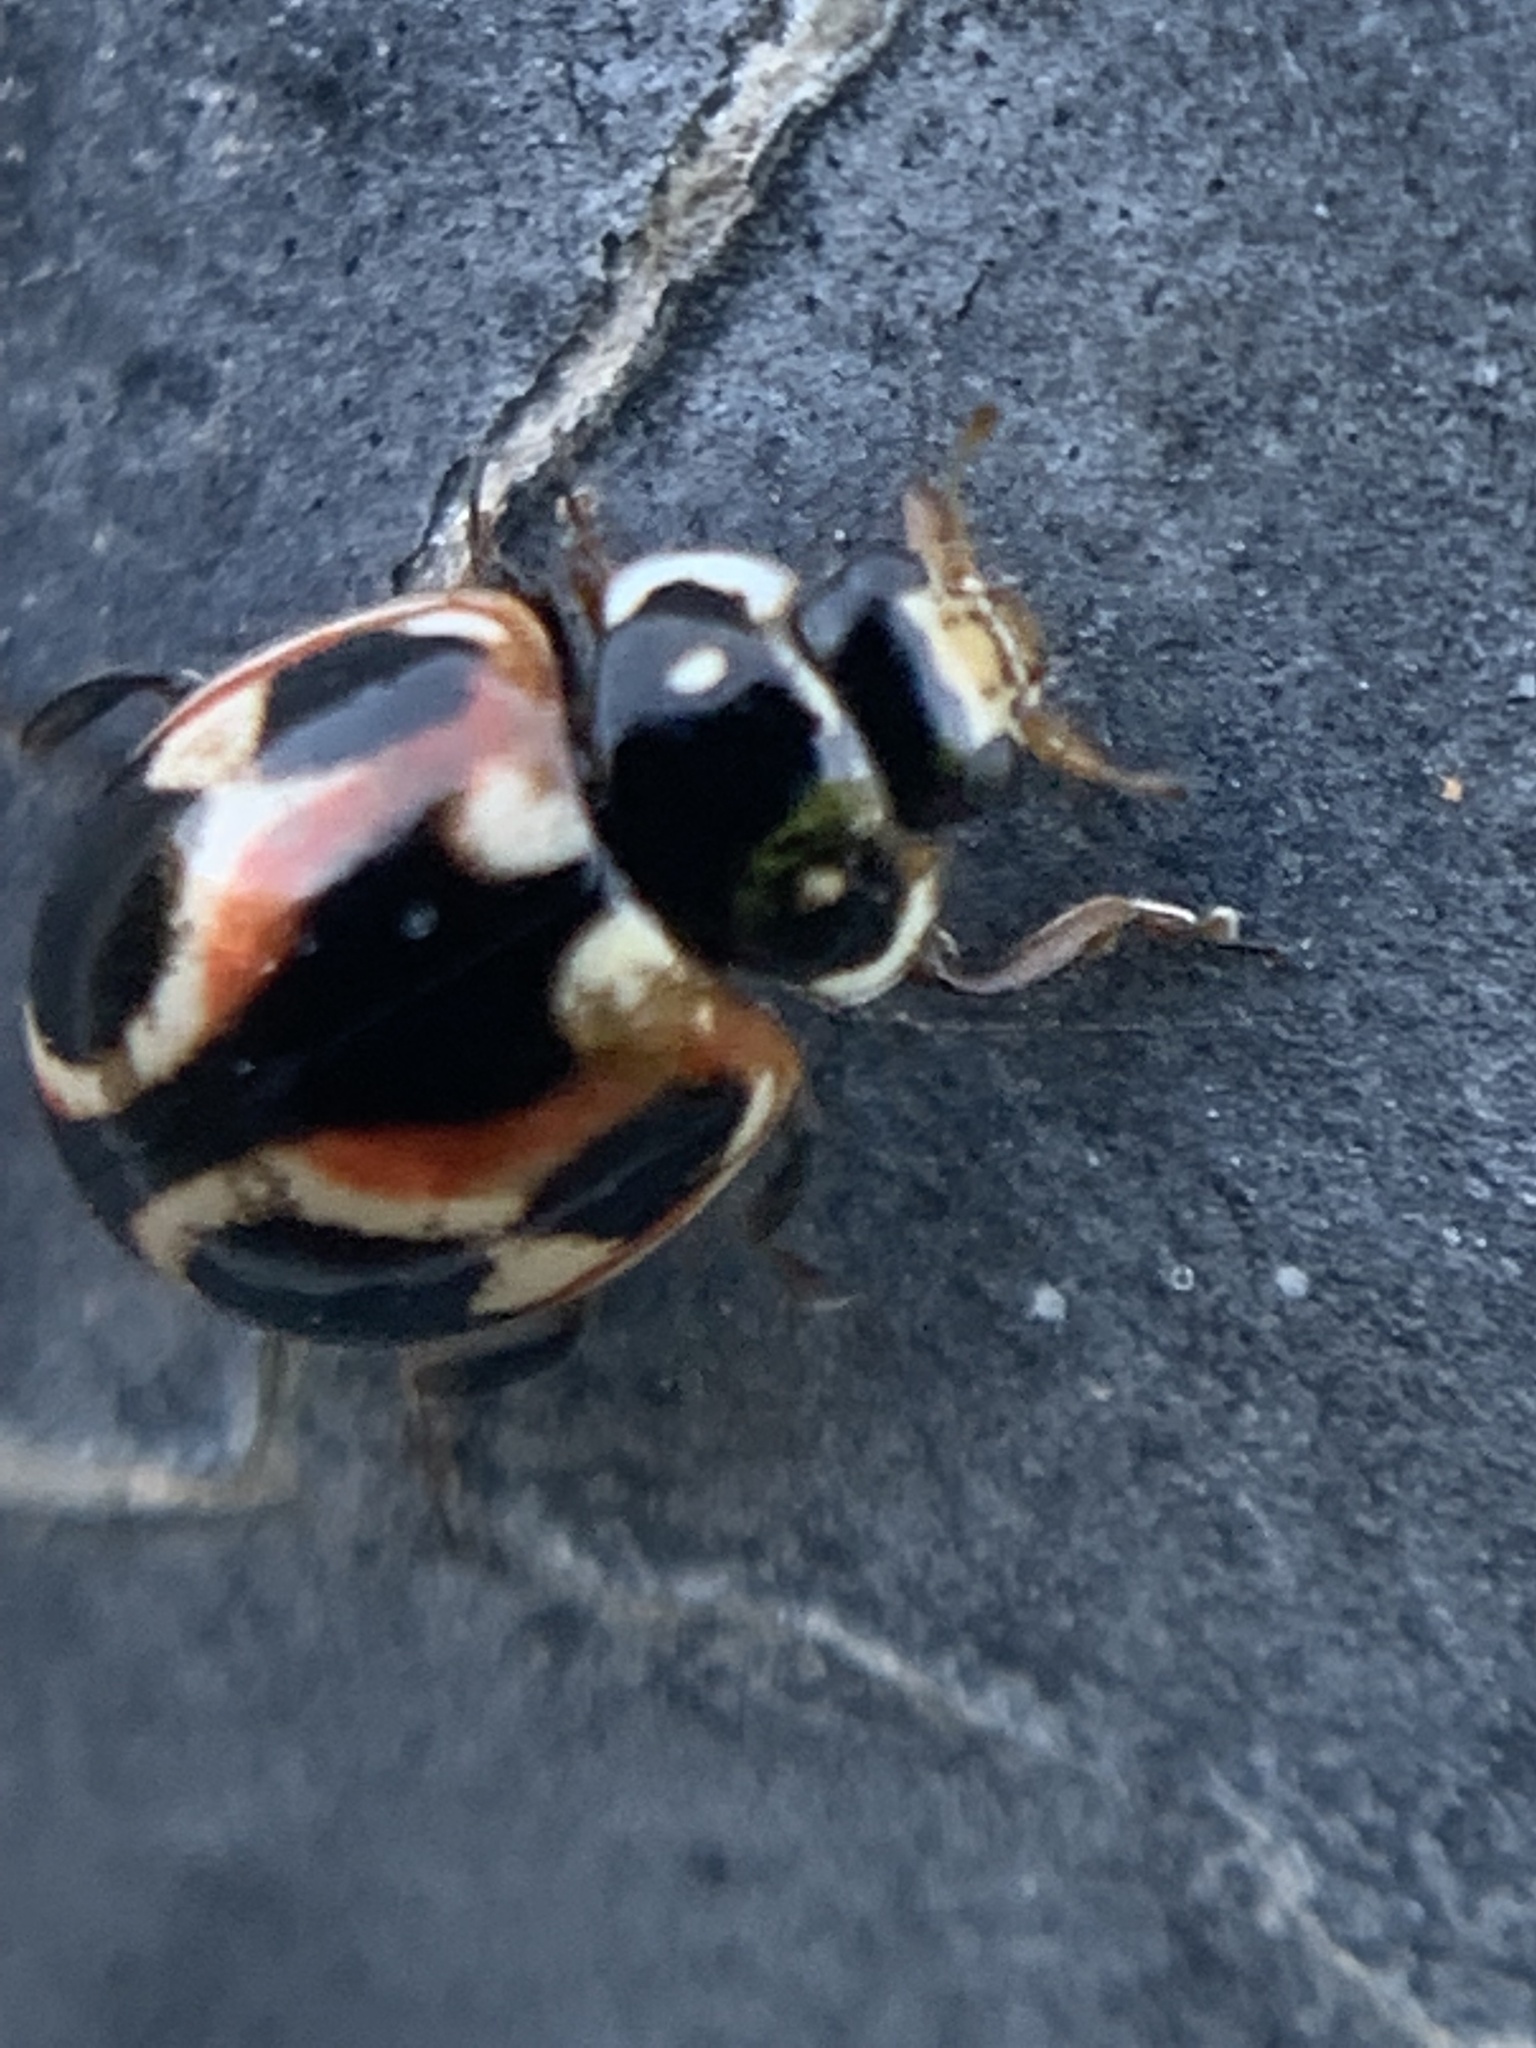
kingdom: Animalia
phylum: Arthropoda
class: Insecta
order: Coleoptera
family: Coccinellidae
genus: Cycloneda
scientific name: Cycloneda ancoralis
